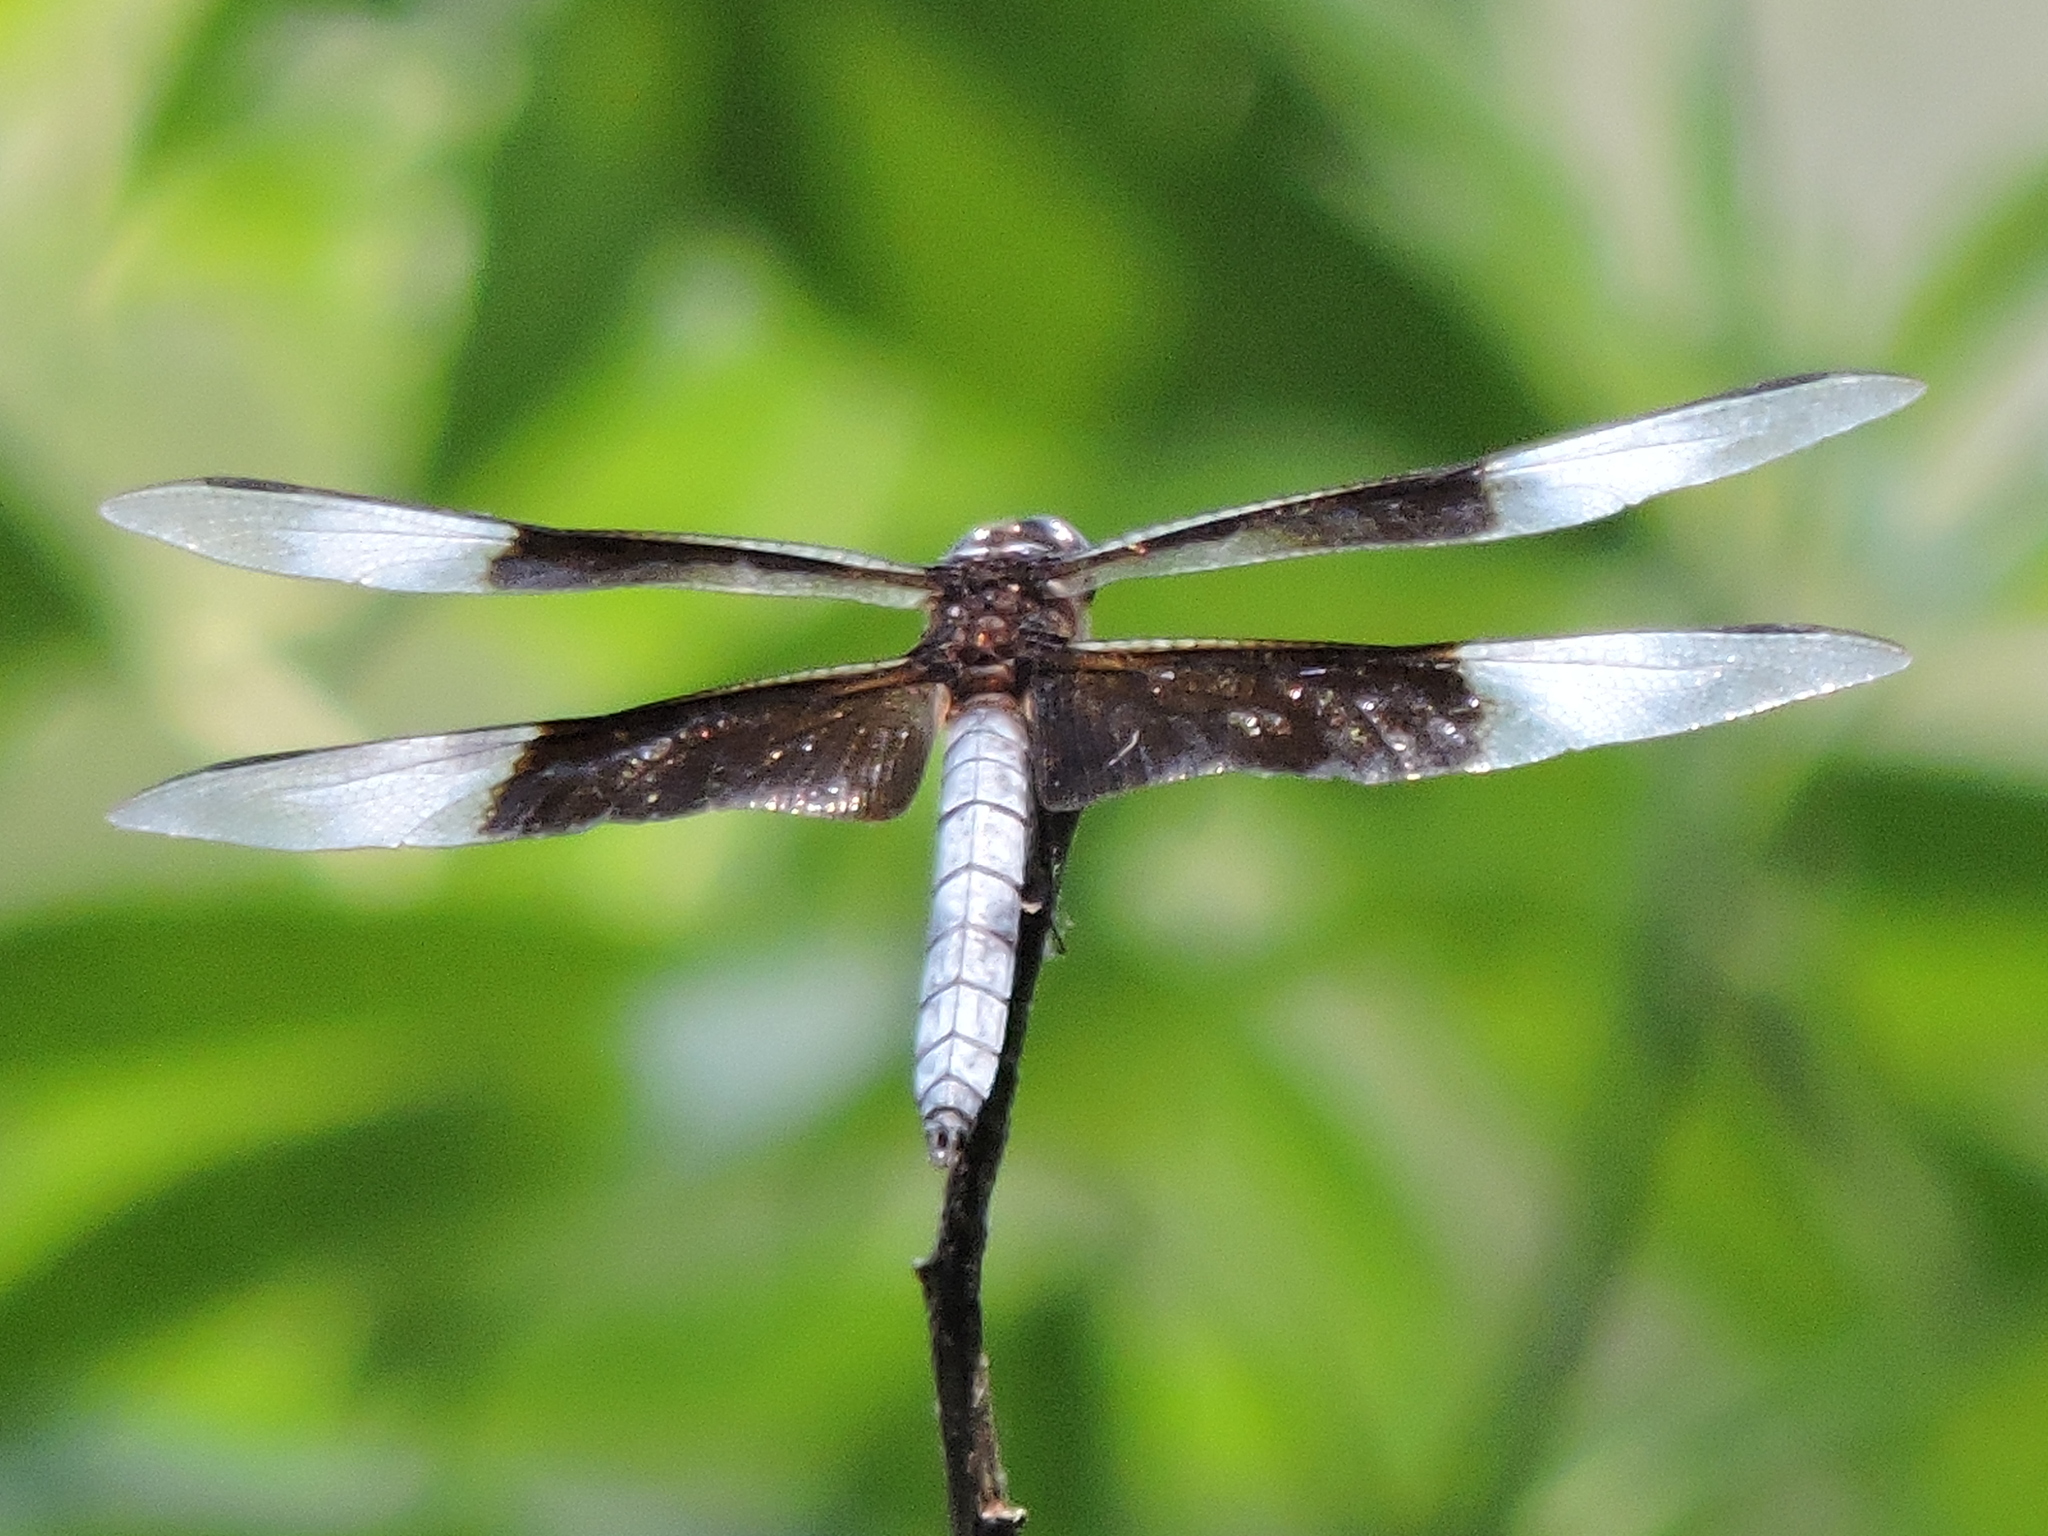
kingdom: Animalia
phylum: Arthropoda
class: Insecta
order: Odonata
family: Libellulidae
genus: Libellula
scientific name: Libellula luctuosa
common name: Widow skimmer
